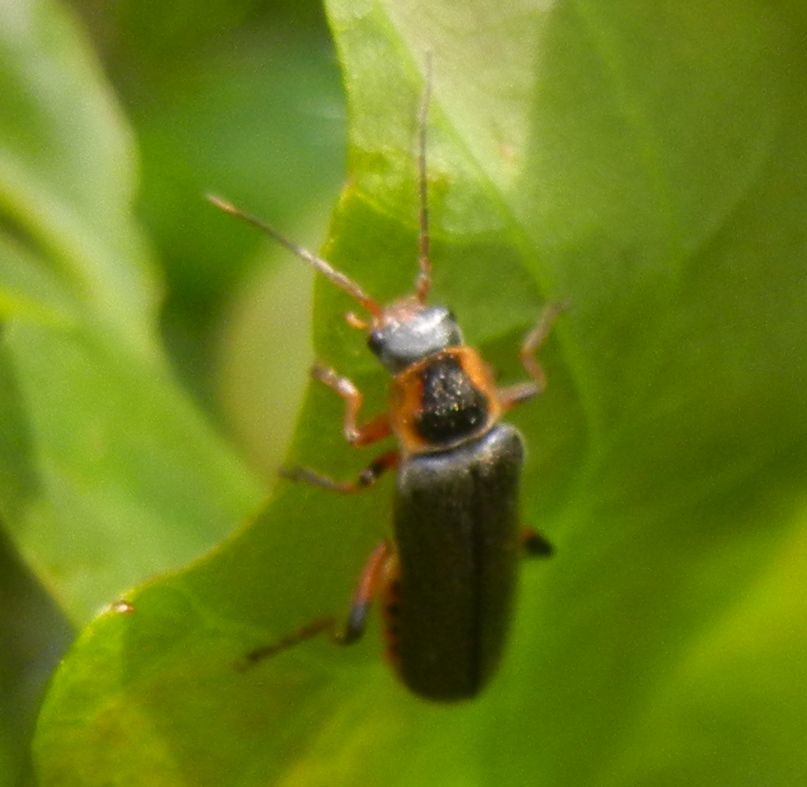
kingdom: Animalia
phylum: Arthropoda
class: Insecta
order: Coleoptera
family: Cantharidae
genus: Cantharis
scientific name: Cantharis nigricans
